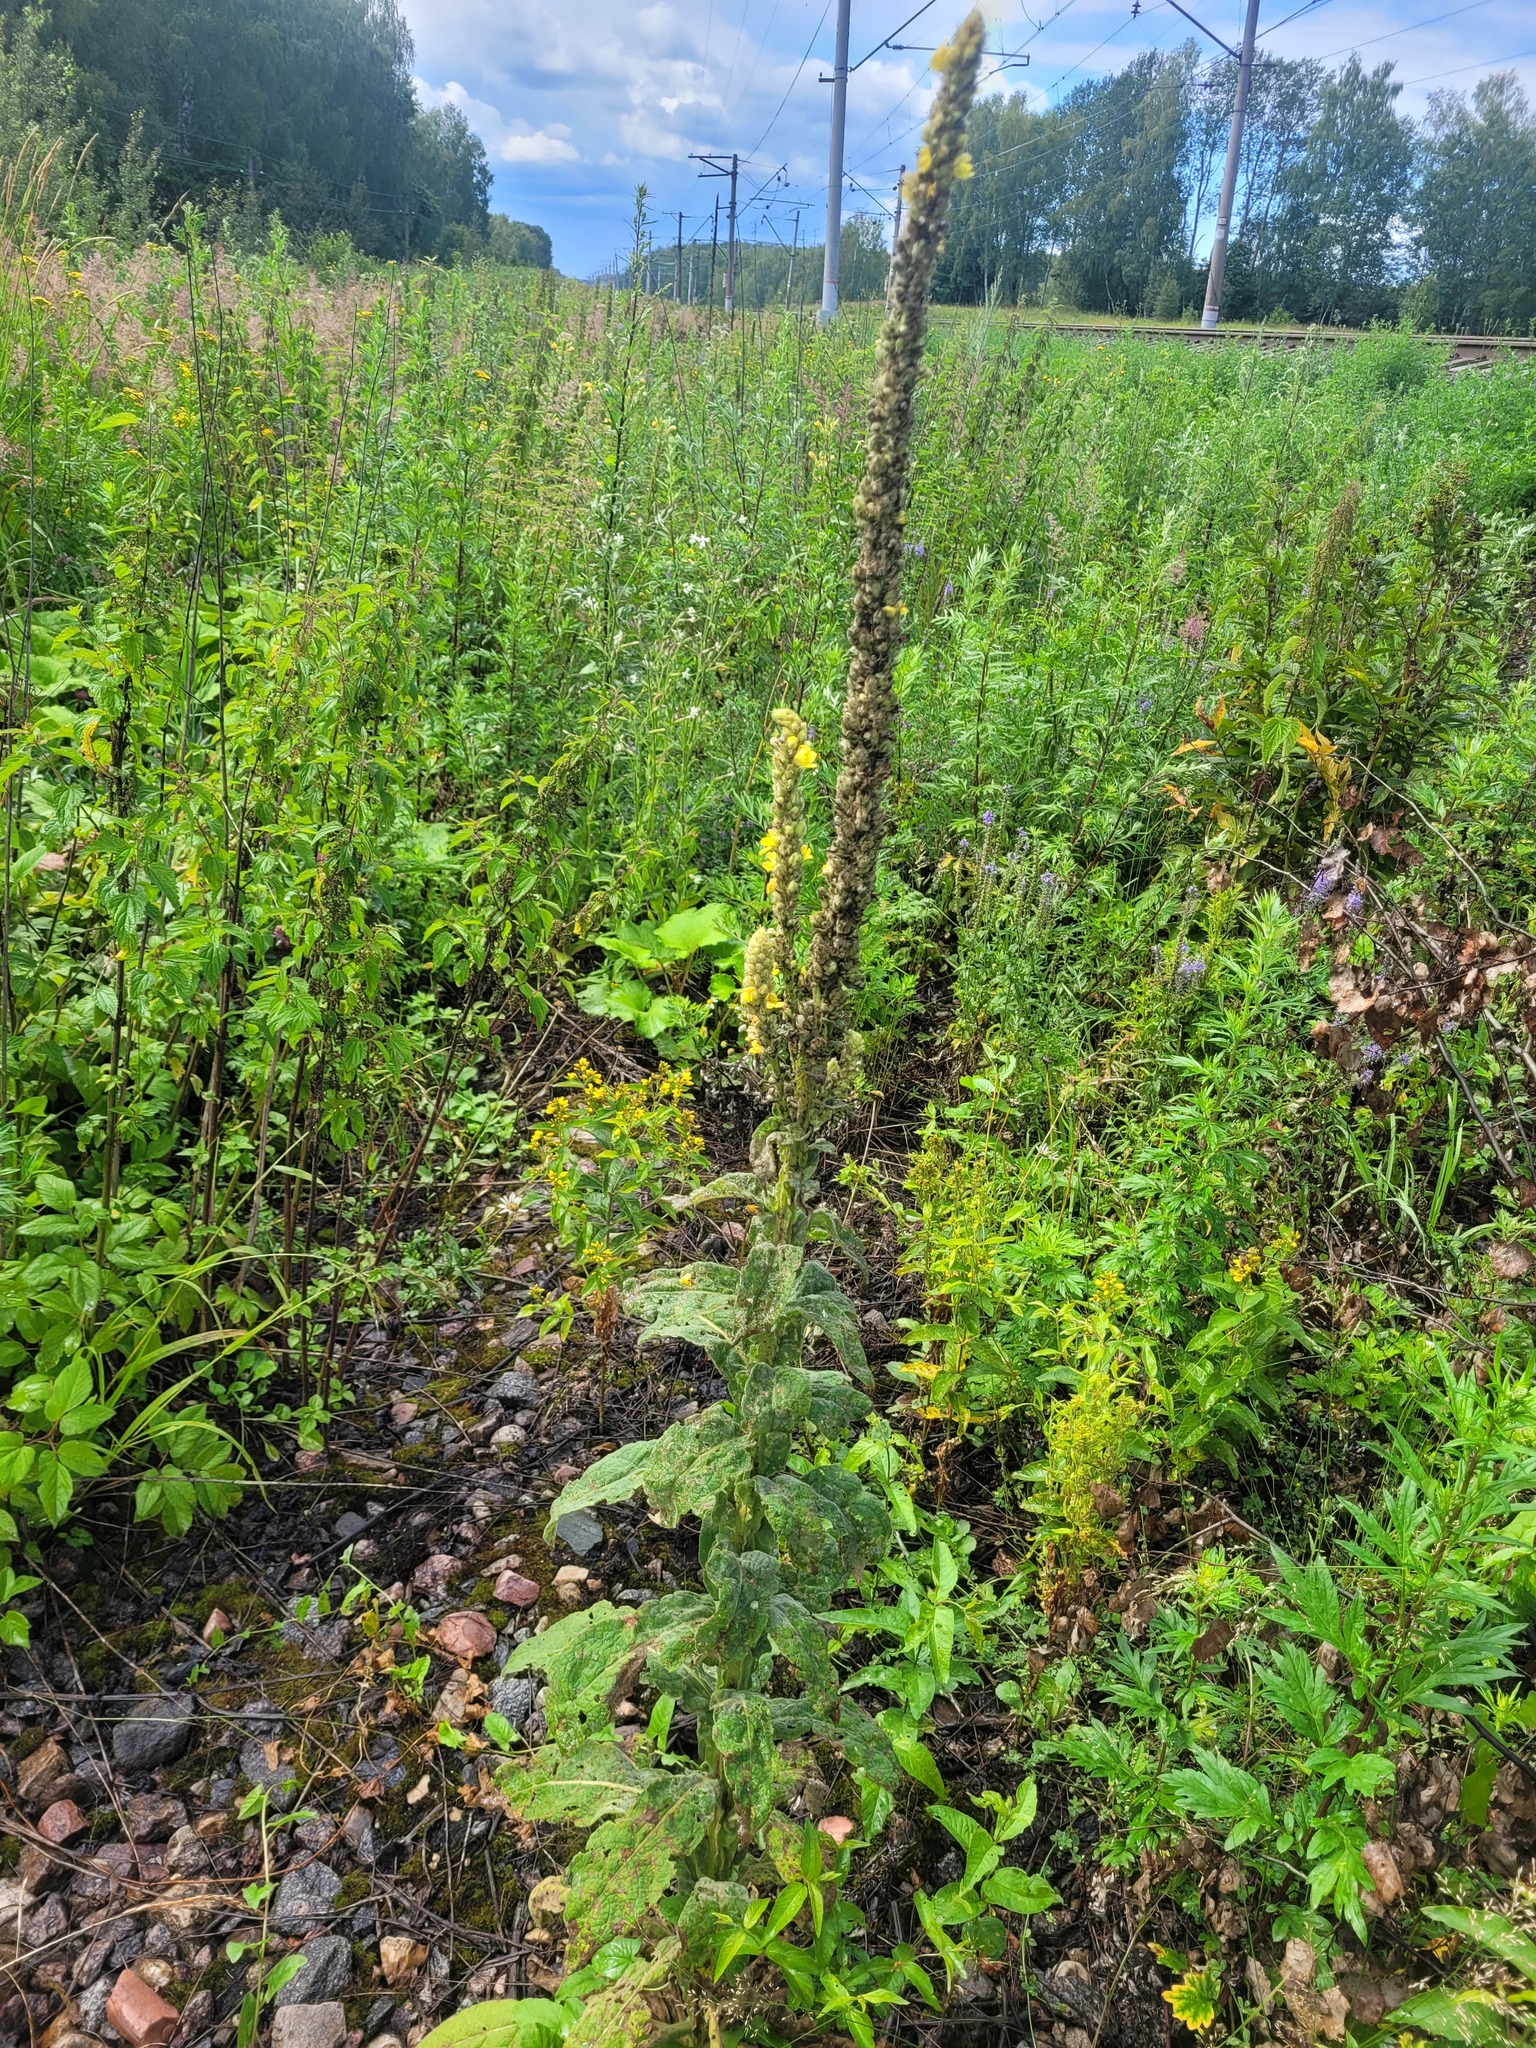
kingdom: Plantae
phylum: Tracheophyta
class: Magnoliopsida
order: Lamiales
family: Scrophulariaceae
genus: Verbascum
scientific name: Verbascum thapsus
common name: Common mullein
